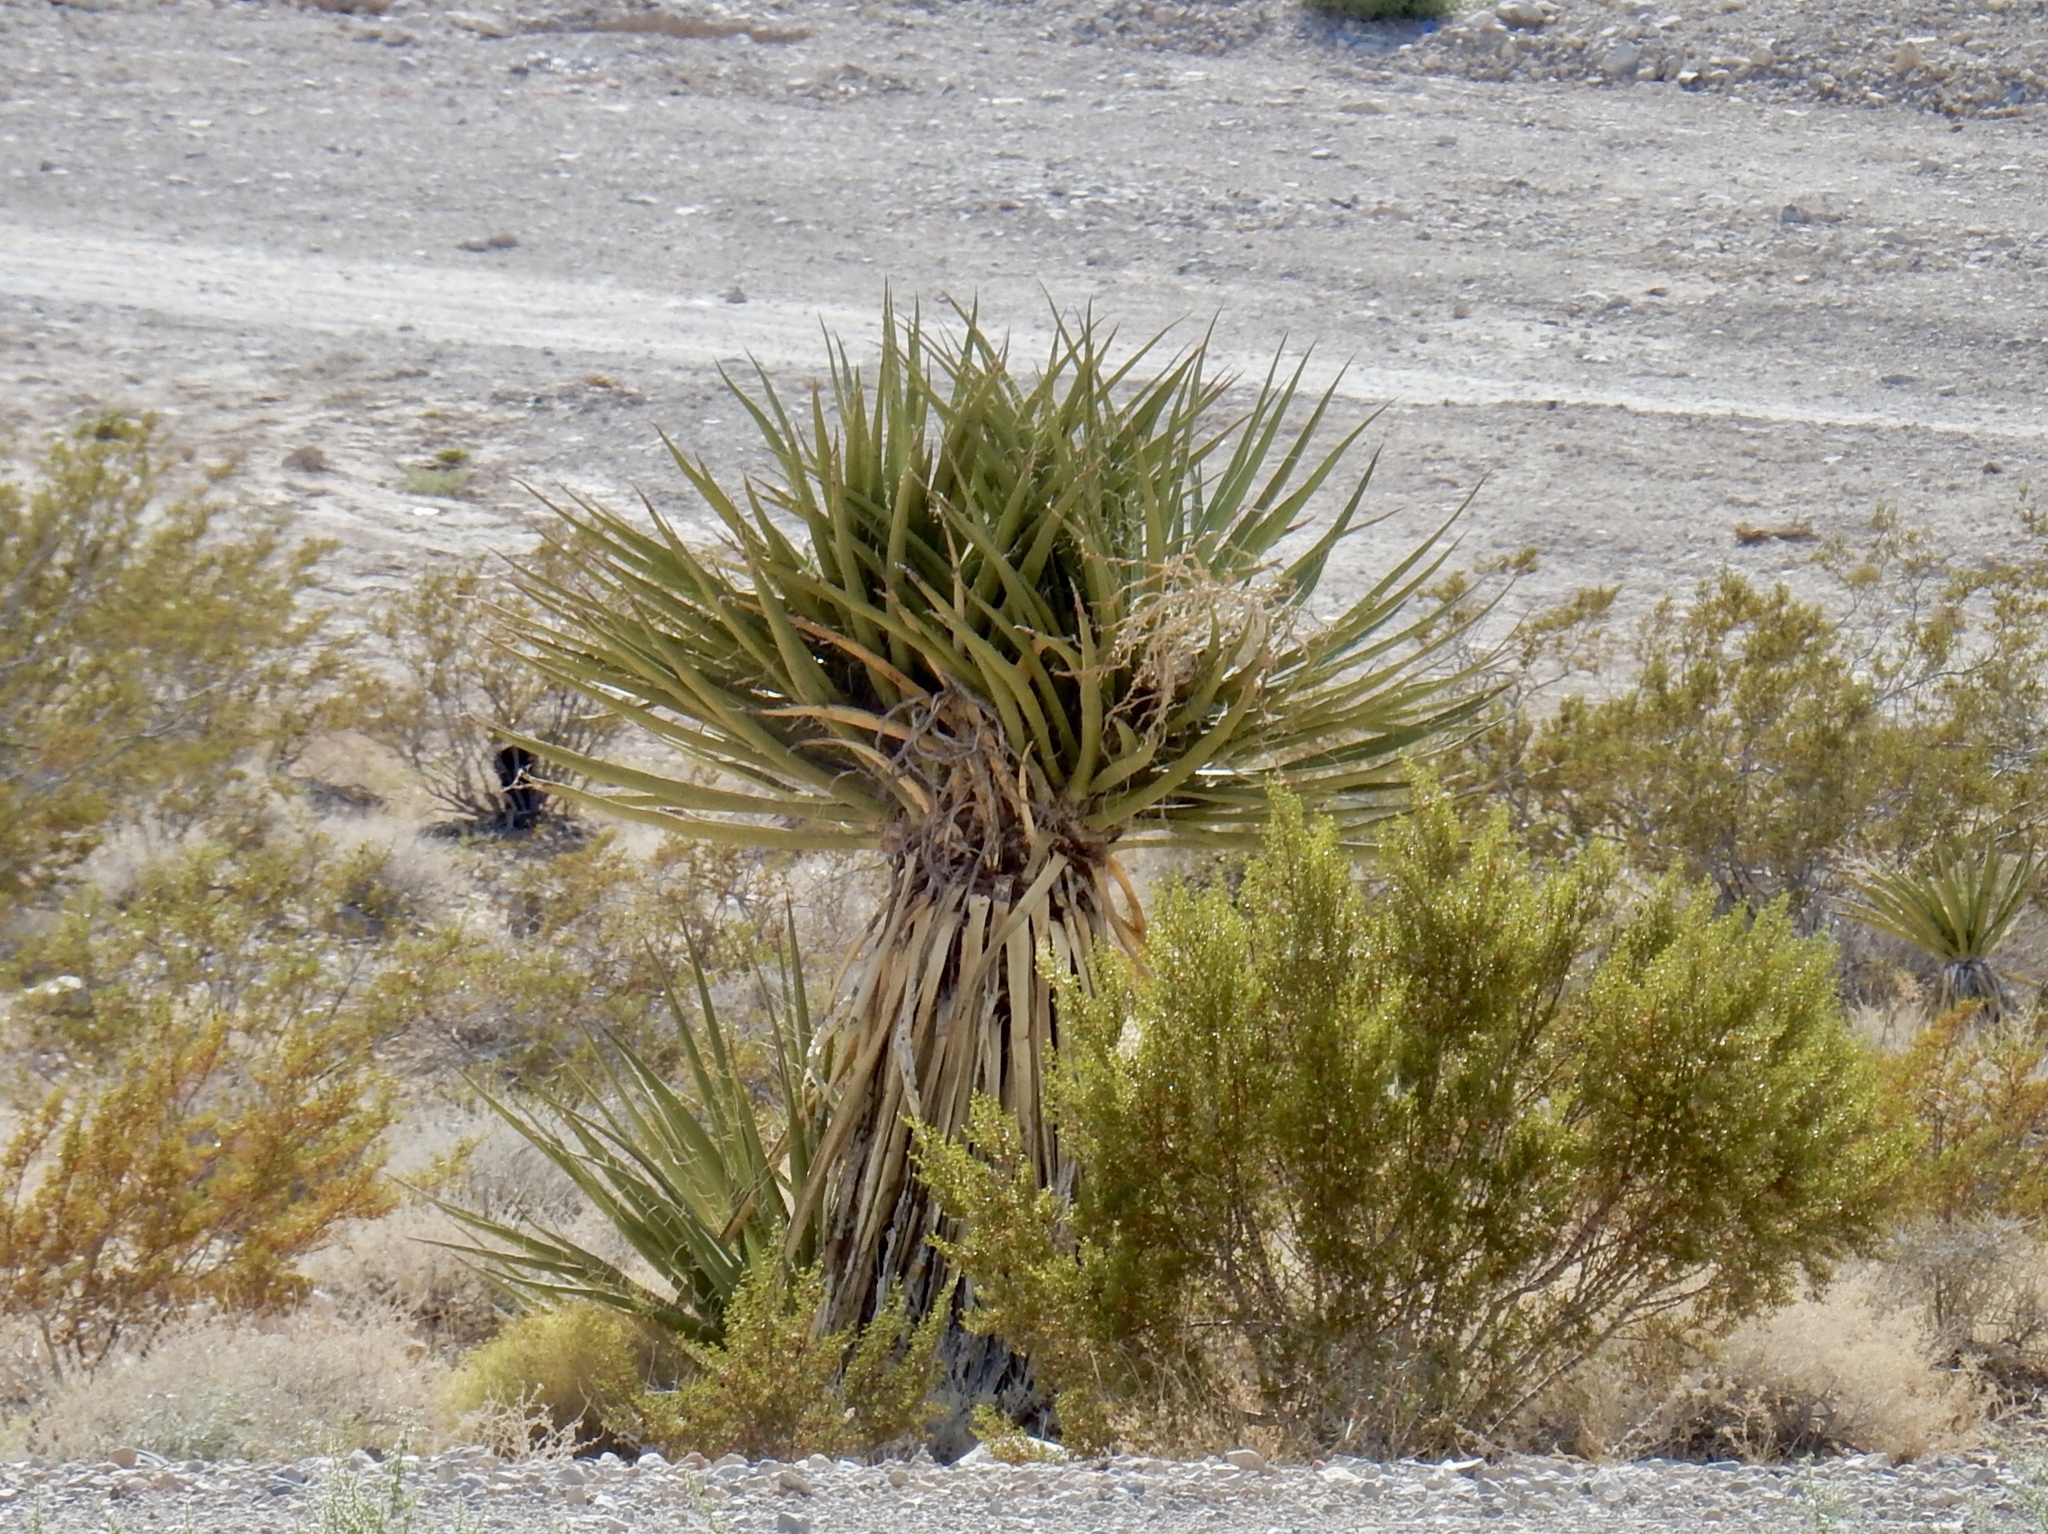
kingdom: Plantae
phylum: Tracheophyta
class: Liliopsida
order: Asparagales
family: Asparagaceae
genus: Yucca
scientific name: Yucca schidigera
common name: Mojave yucca
